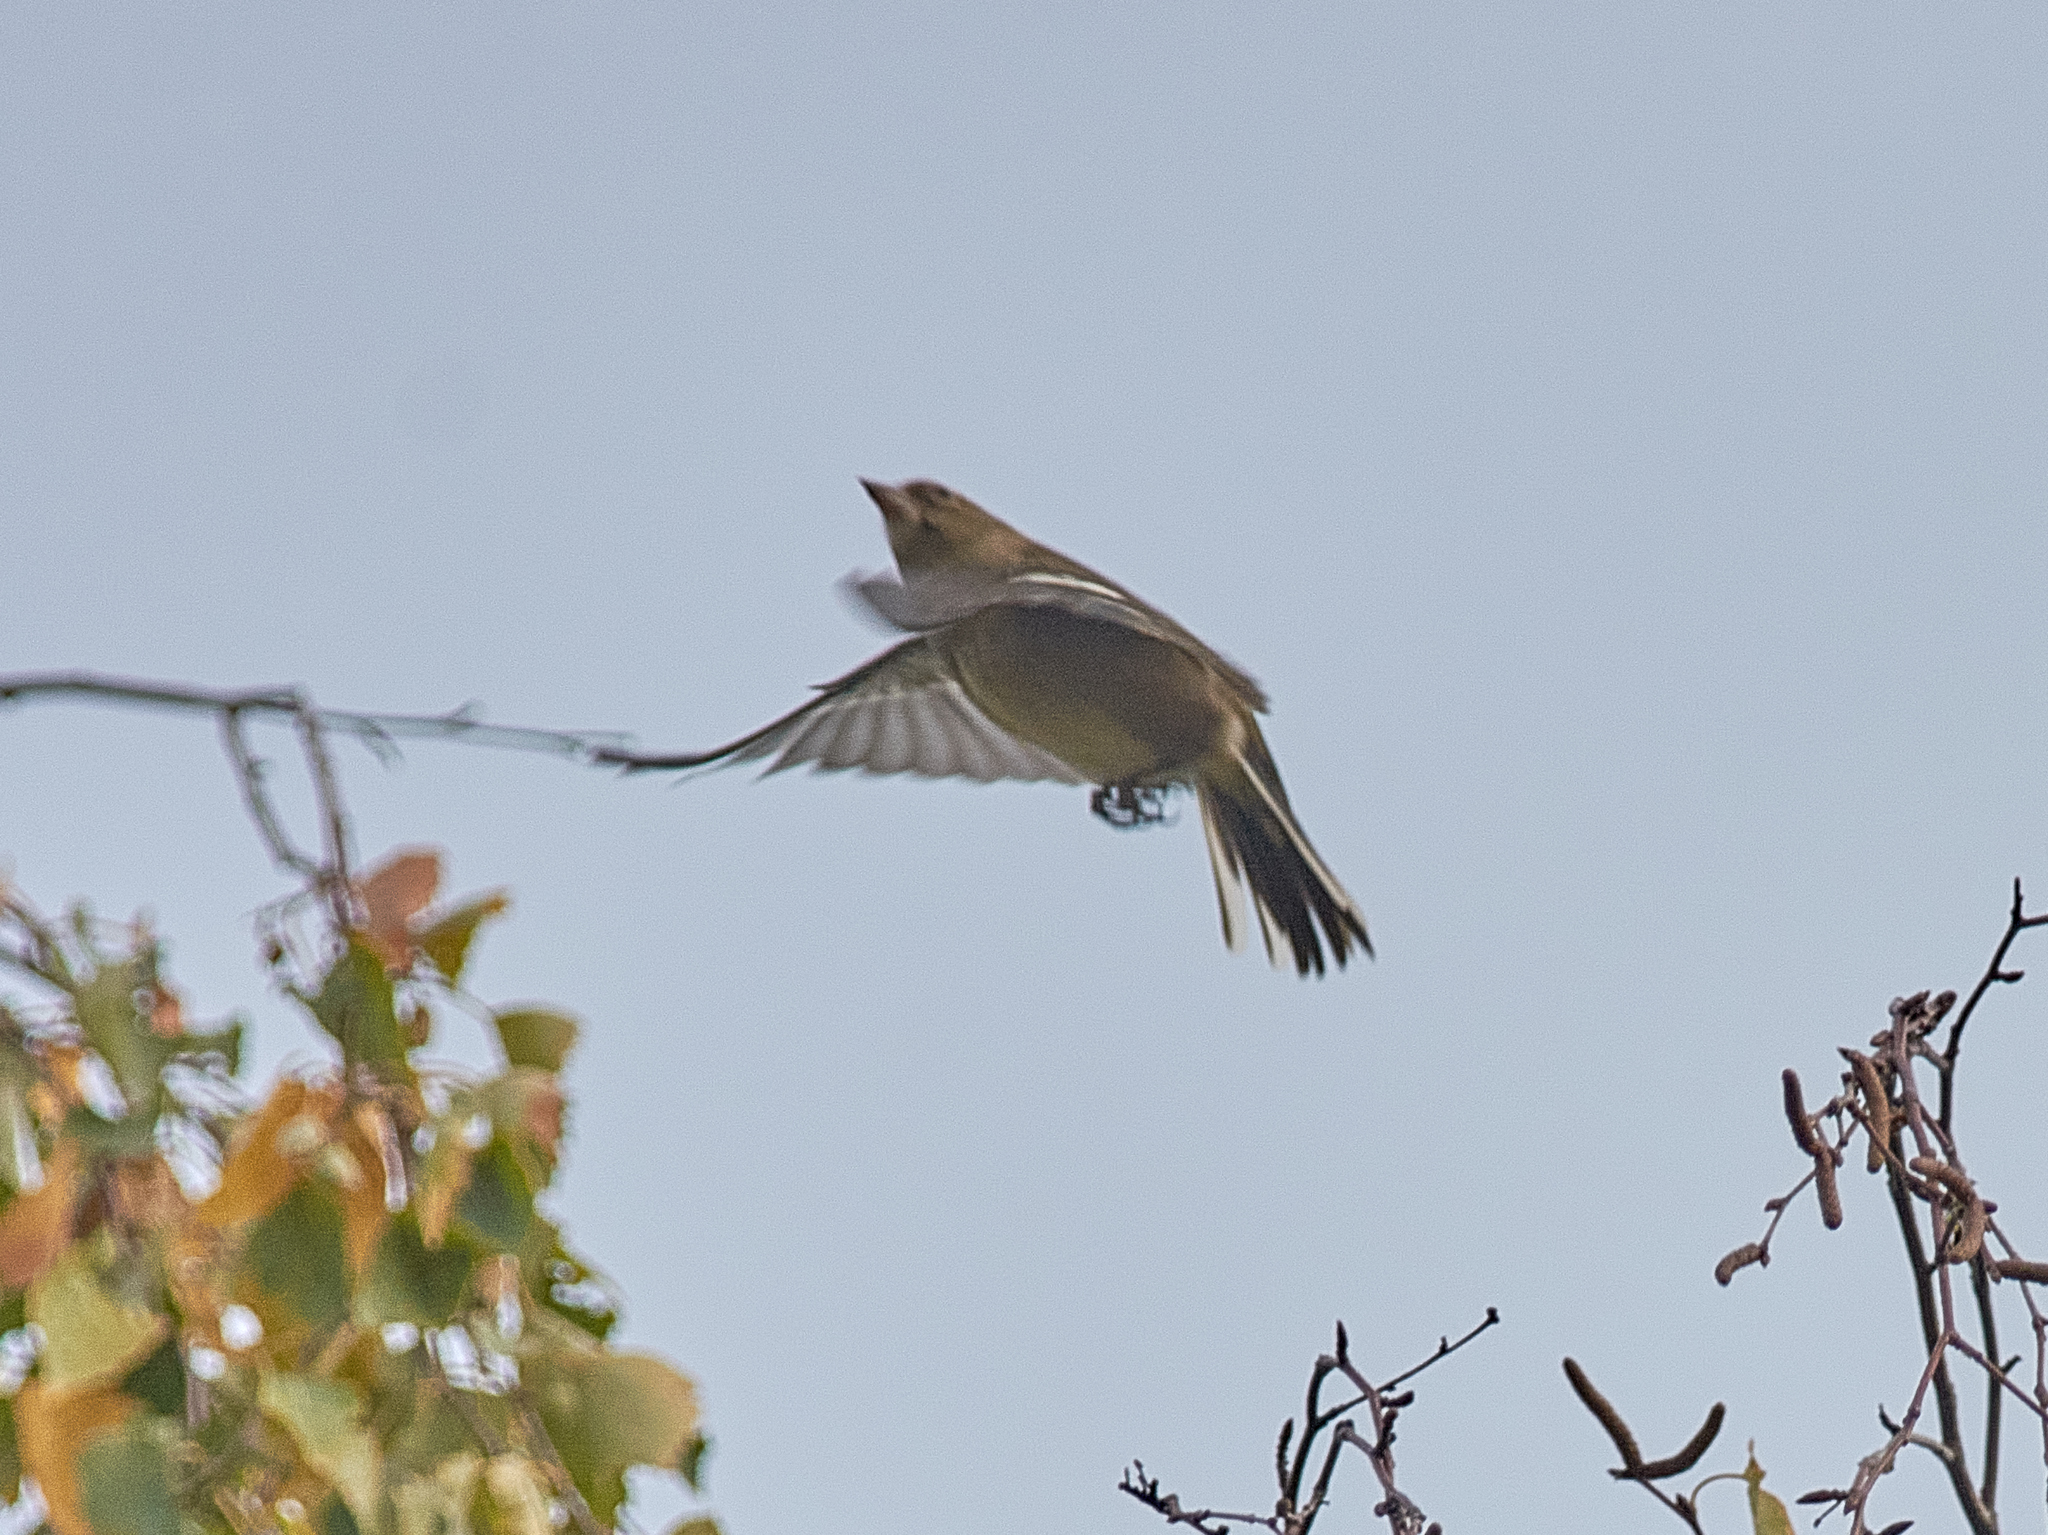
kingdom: Animalia
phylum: Chordata
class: Aves
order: Passeriformes
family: Fringillidae
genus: Fringilla
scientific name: Fringilla coelebs
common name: Common chaffinch
